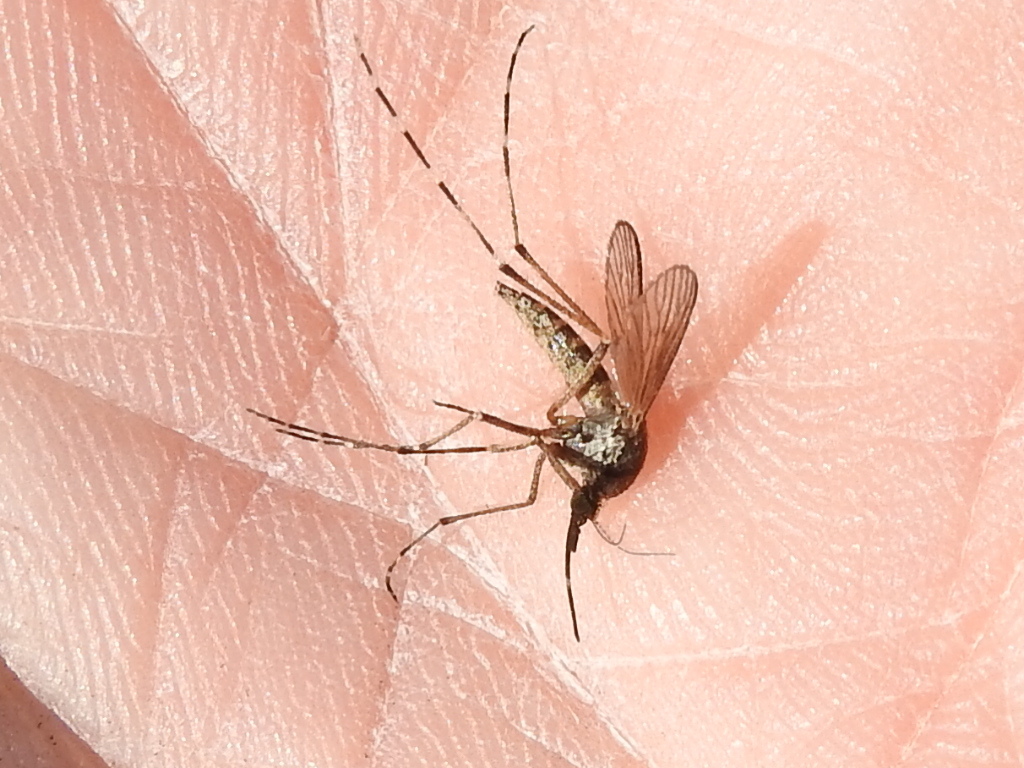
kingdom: Animalia
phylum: Arthropoda
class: Insecta
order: Diptera
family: Culicidae
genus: Aedes
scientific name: Aedes sollicitans
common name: Saltmarsh mosquito
